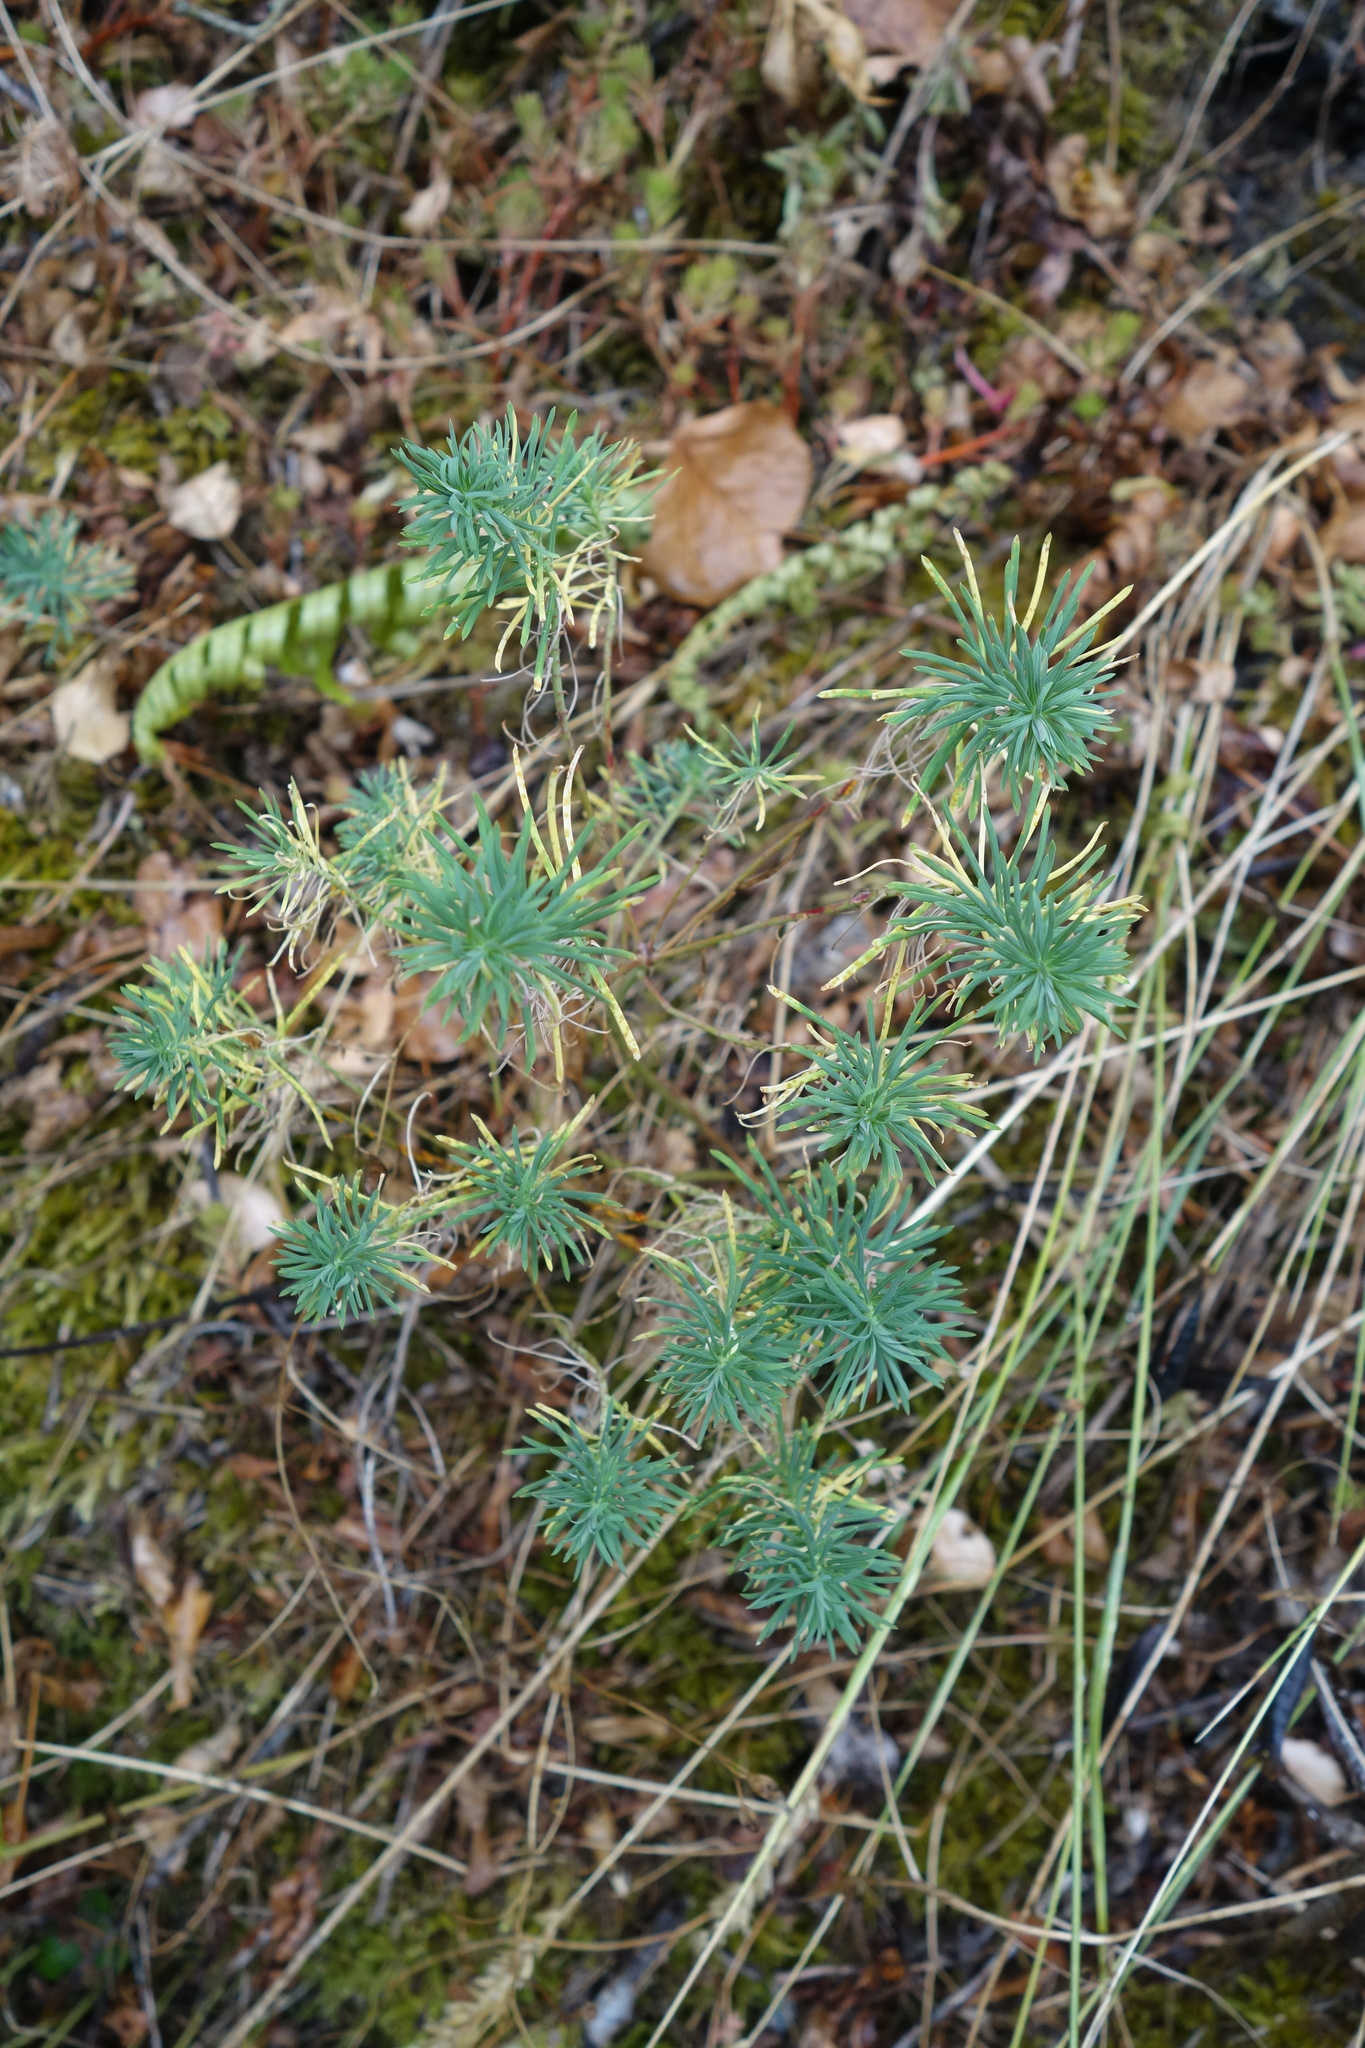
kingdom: Plantae
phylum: Tracheophyta
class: Magnoliopsida
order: Malpighiales
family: Euphorbiaceae
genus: Euphorbia
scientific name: Euphorbia cyparissias
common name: Cypress spurge
